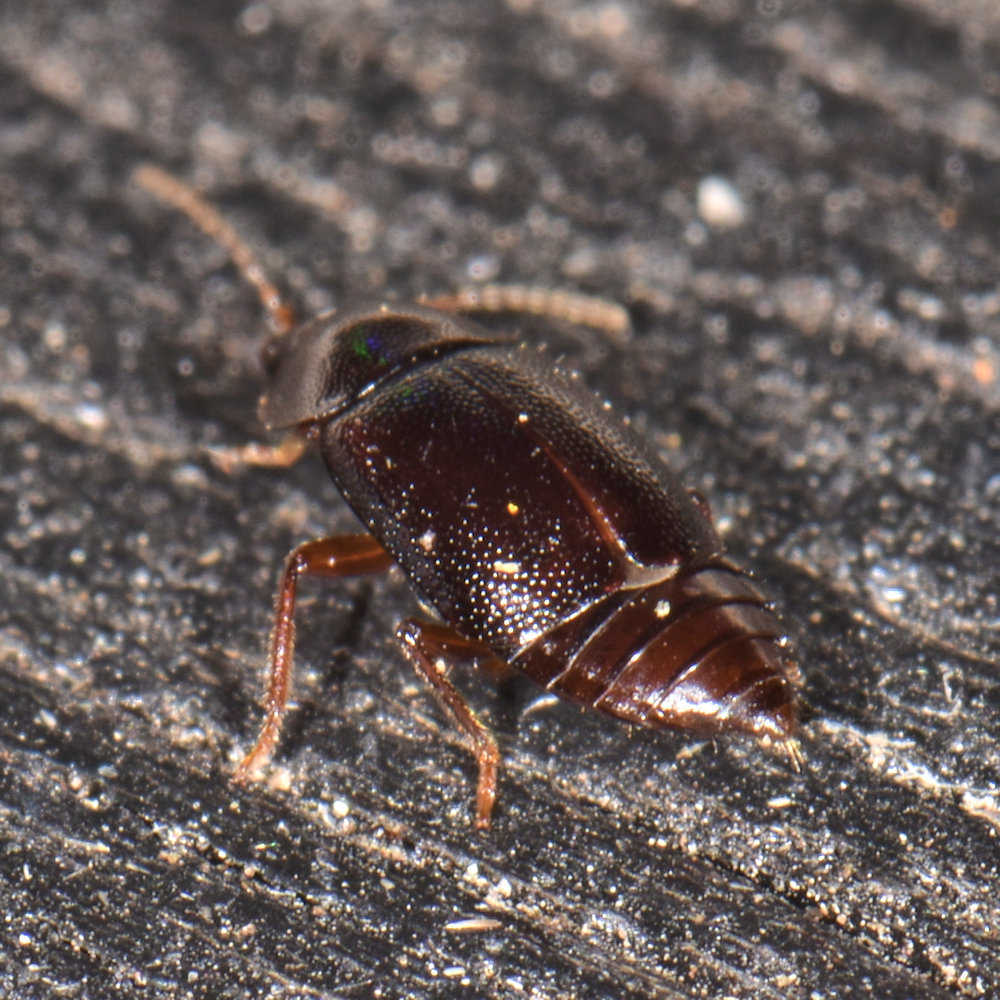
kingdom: Animalia
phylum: Arthropoda
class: Insecta
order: Coleoptera
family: Staphylinidae
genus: Olophrum
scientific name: Olophrum obtectum
